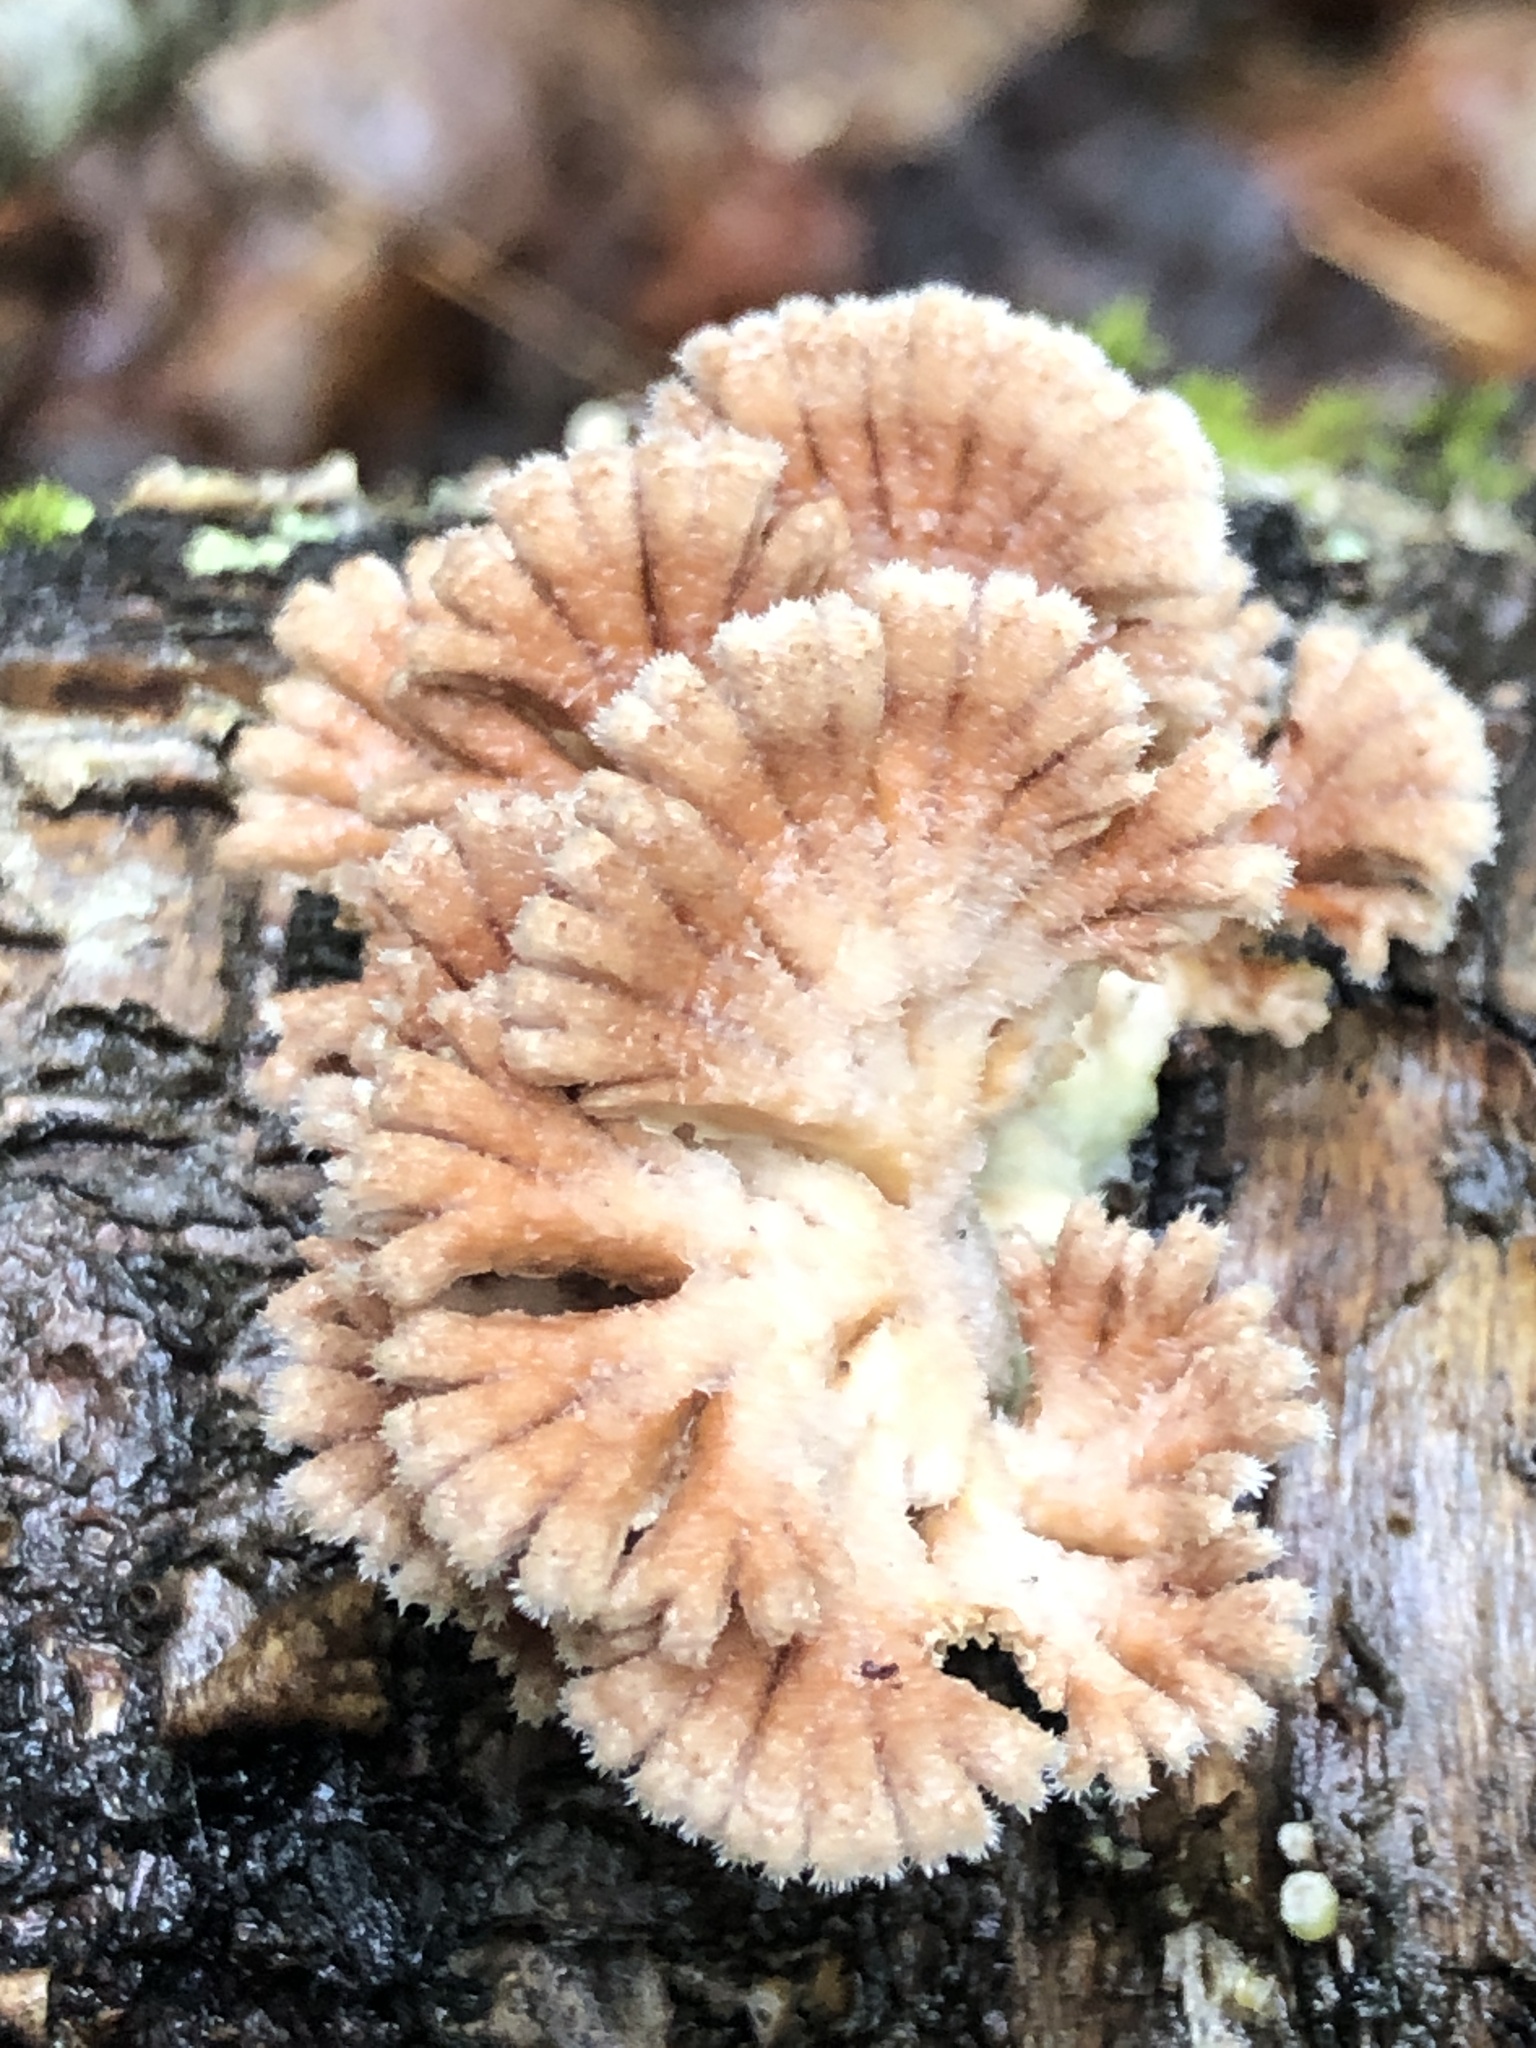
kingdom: Fungi
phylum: Basidiomycota
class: Agaricomycetes
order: Agaricales
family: Schizophyllaceae
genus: Schizophyllum
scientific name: Schizophyllum commune
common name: Common porecrust
